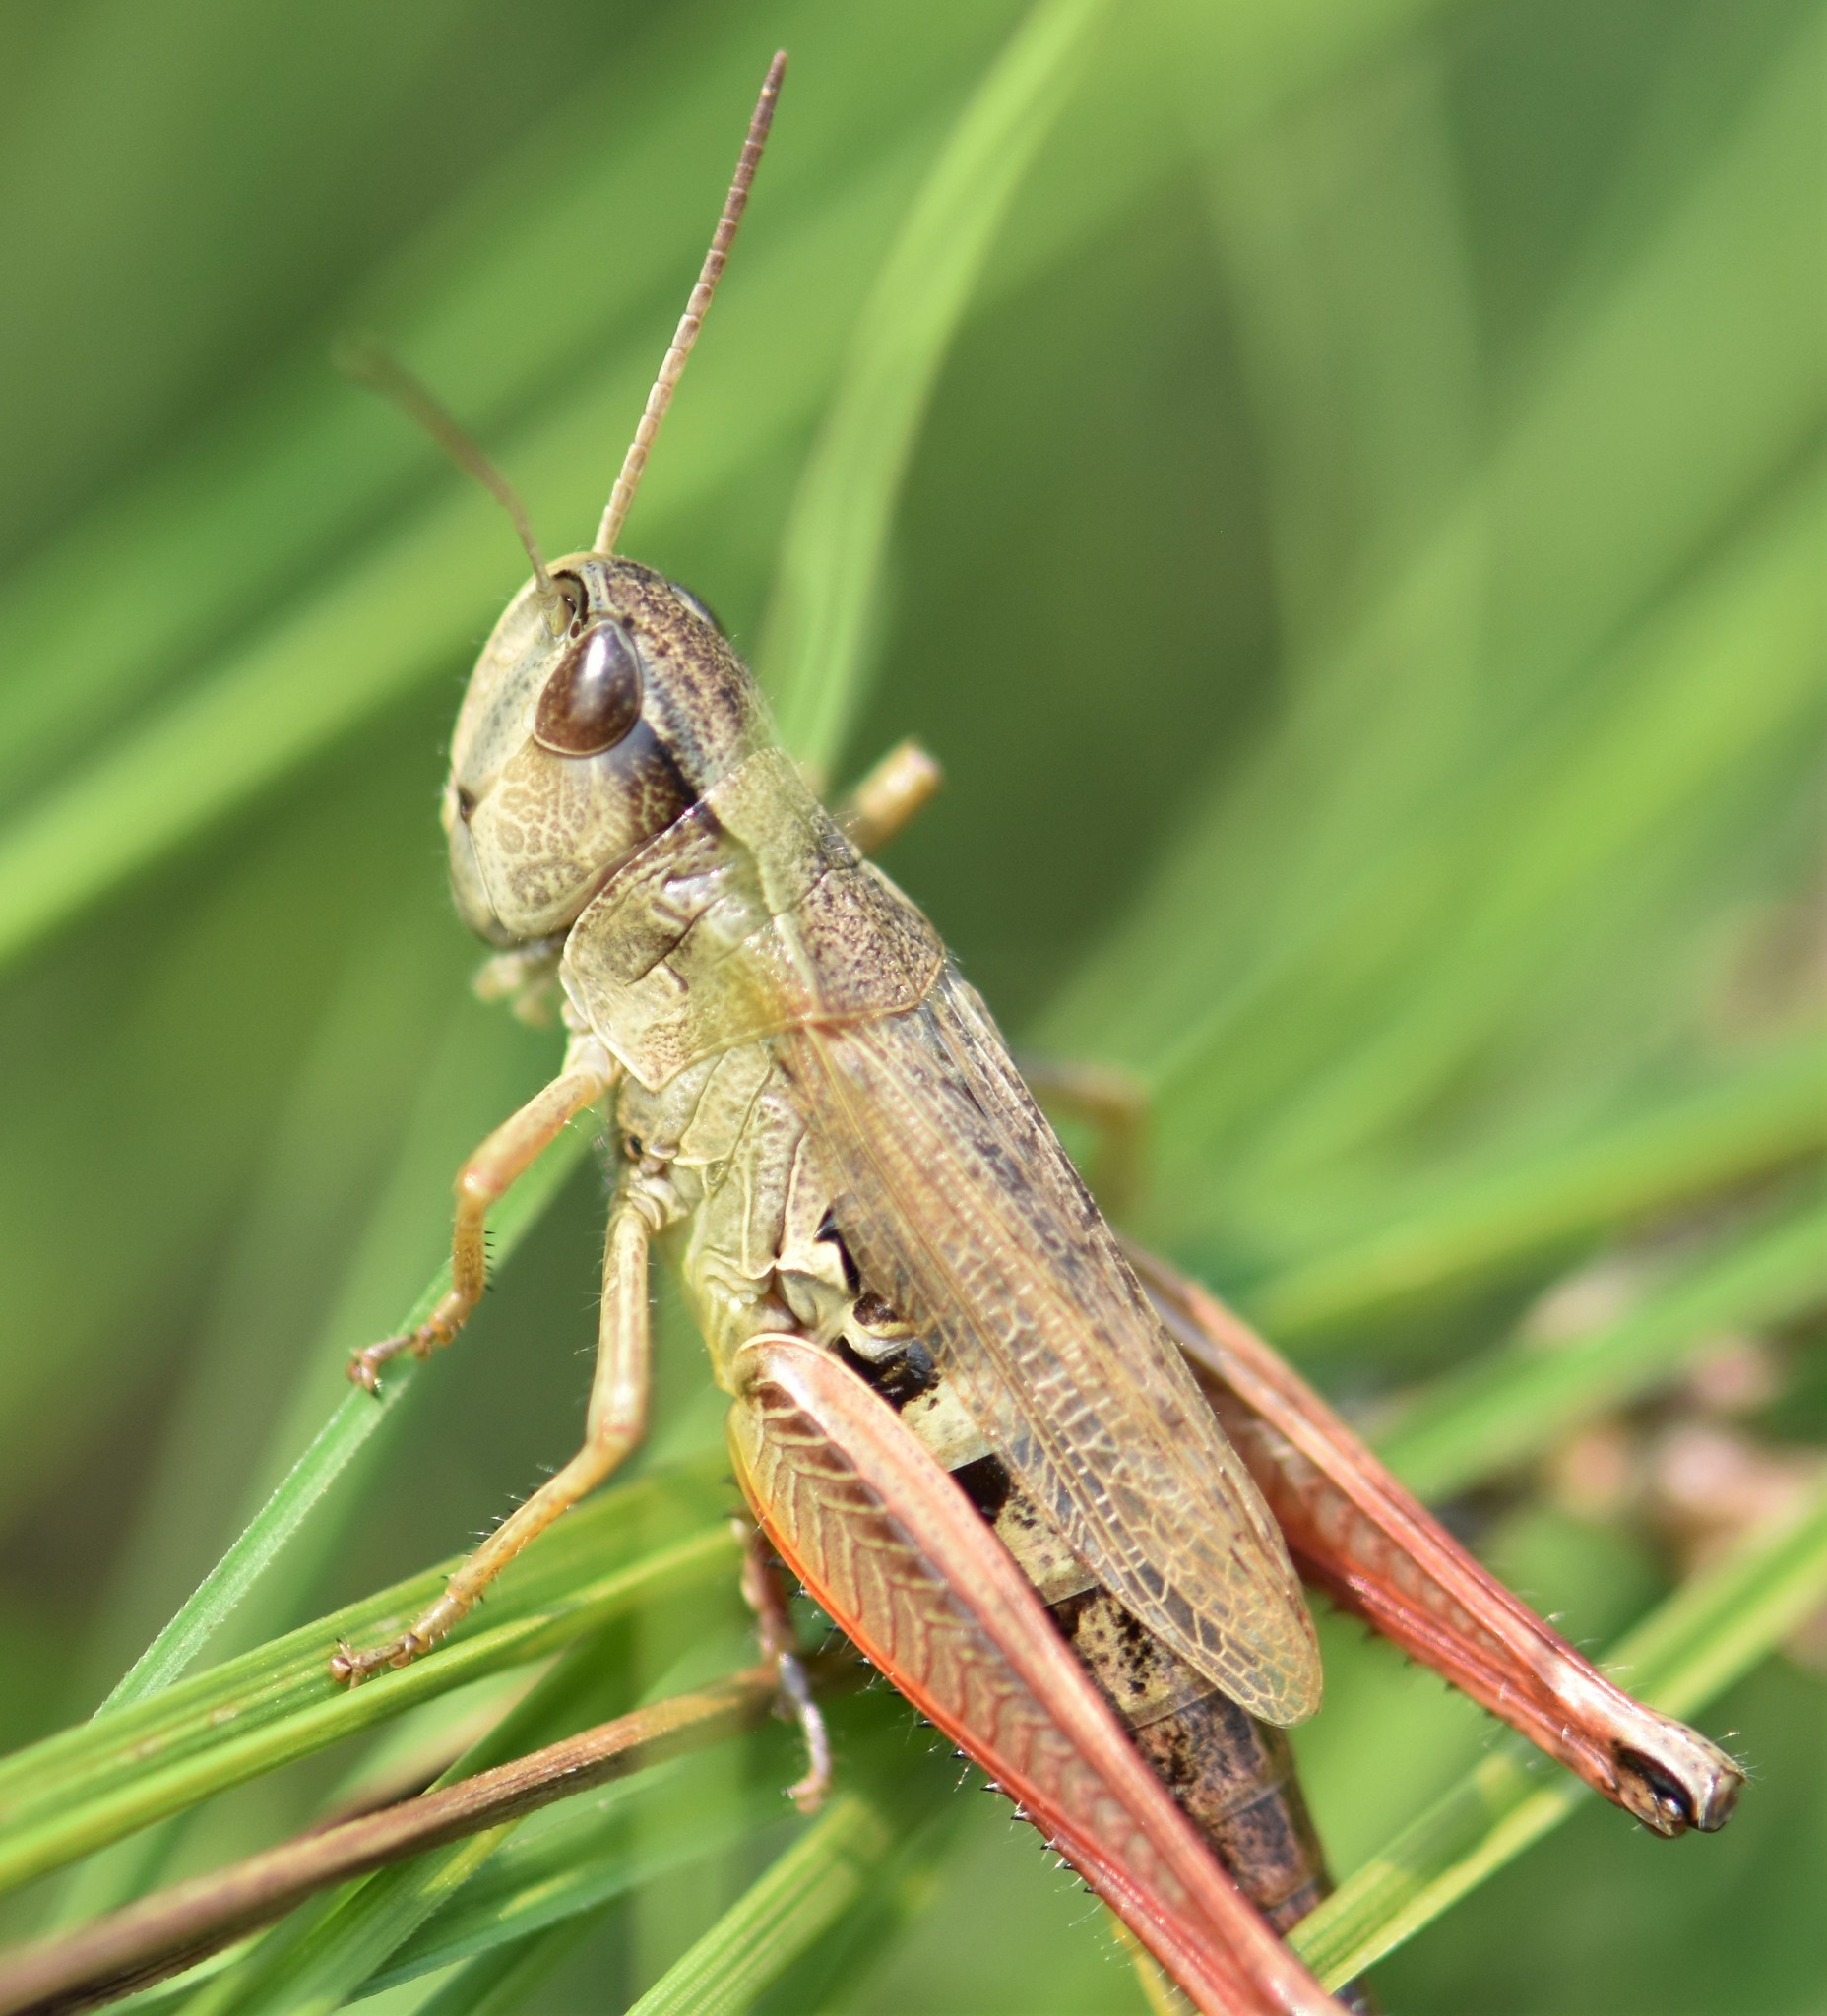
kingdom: Animalia
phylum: Arthropoda
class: Insecta
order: Orthoptera
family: Acrididae
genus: Pseudochorthippus
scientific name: Pseudochorthippus curtipennis
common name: Marsh meadow grasshopper
